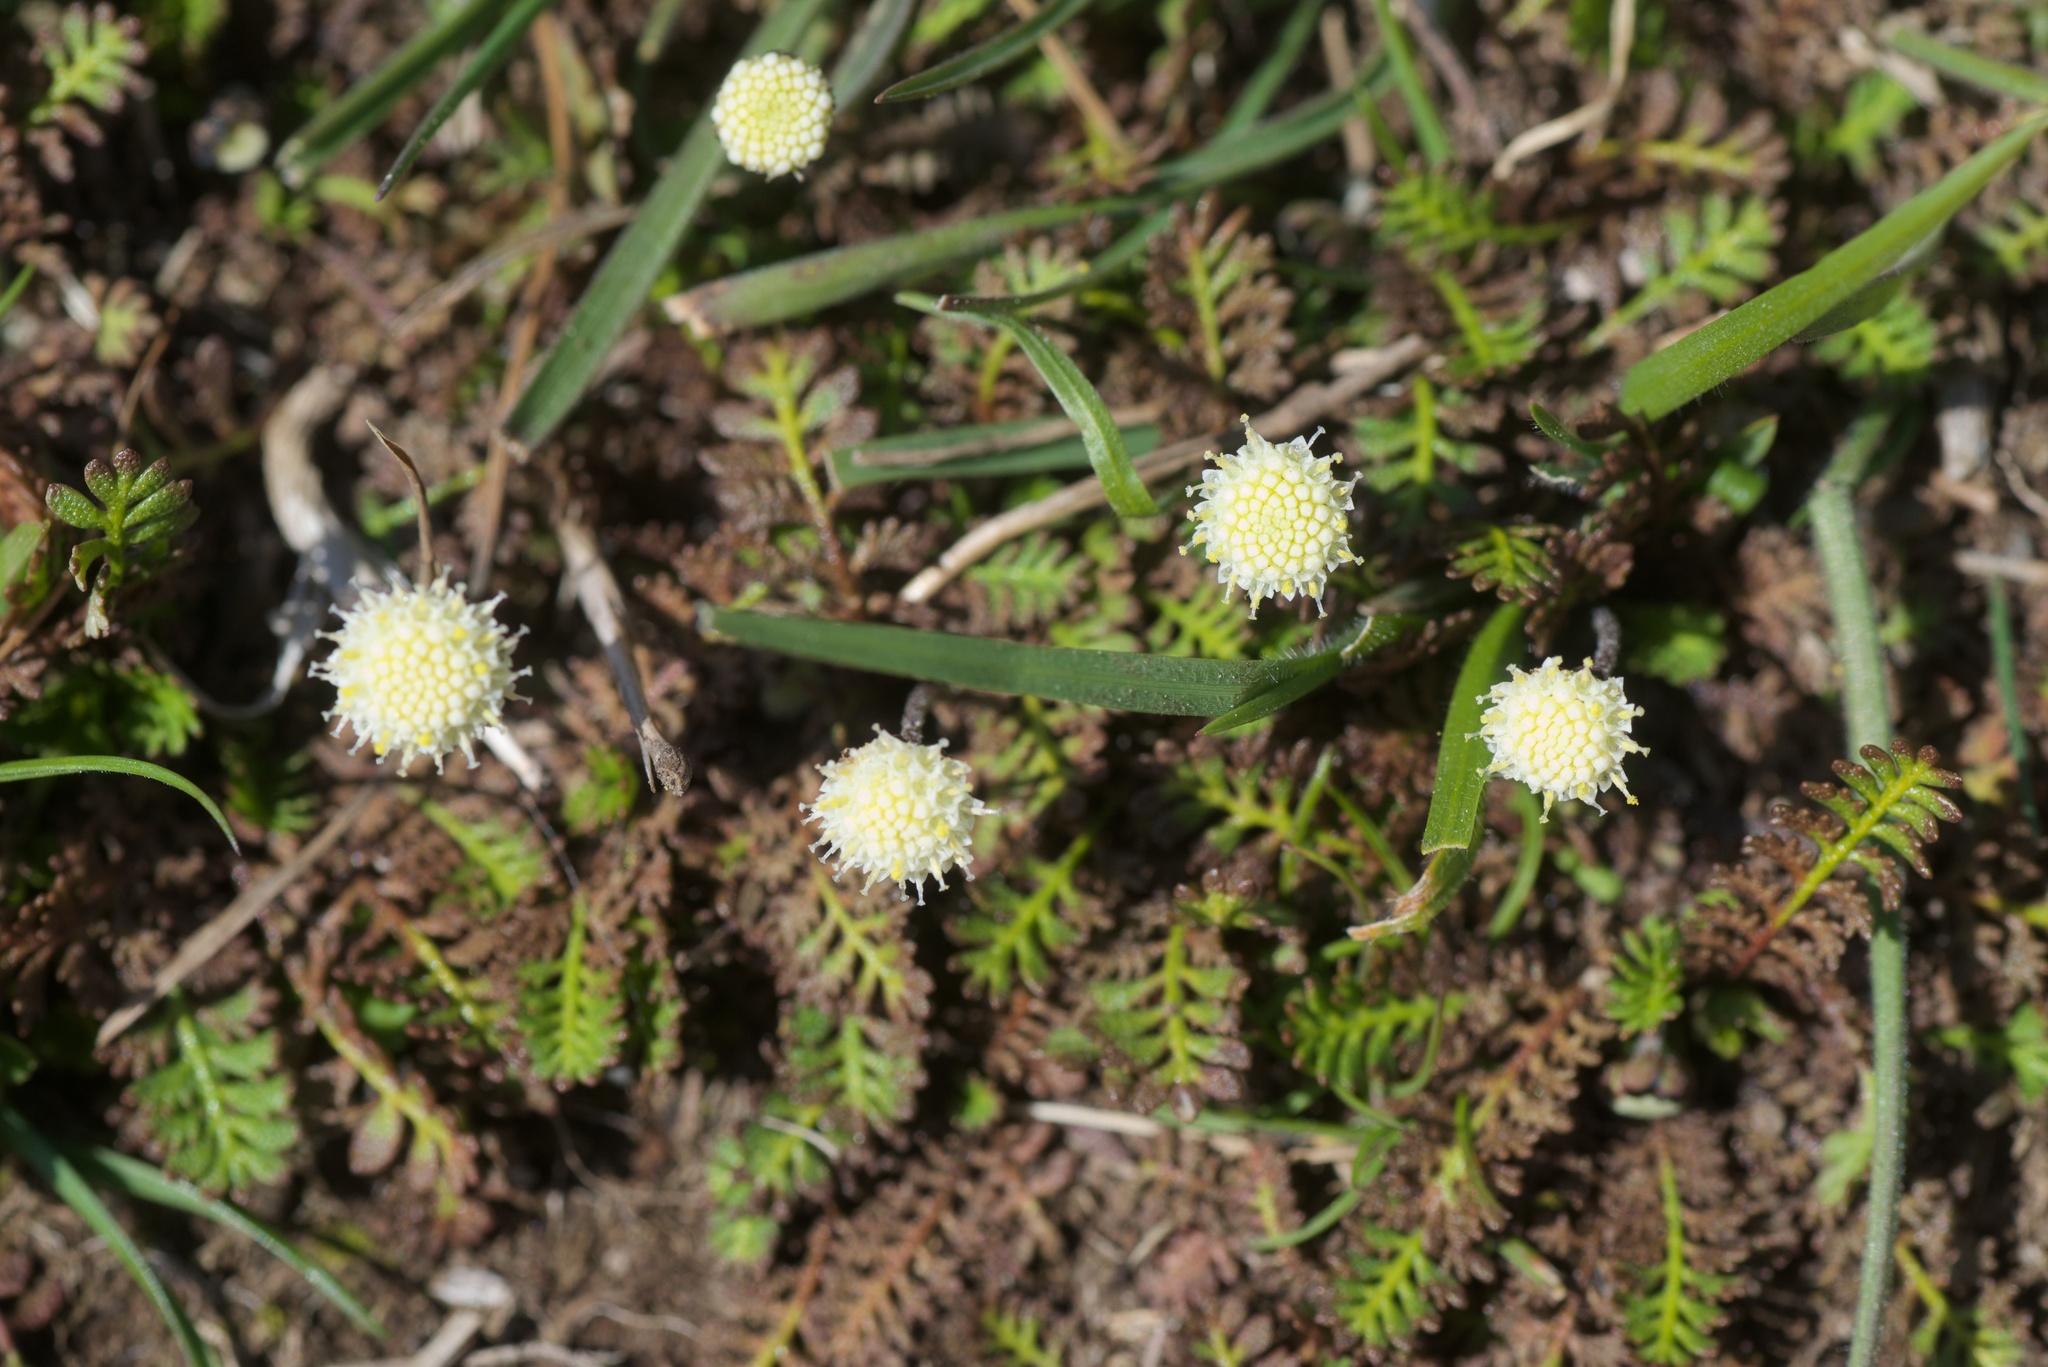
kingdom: Plantae
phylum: Tracheophyta
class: Magnoliopsida
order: Asterales
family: Asteraceae
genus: Leptinella
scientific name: Leptinella minor
